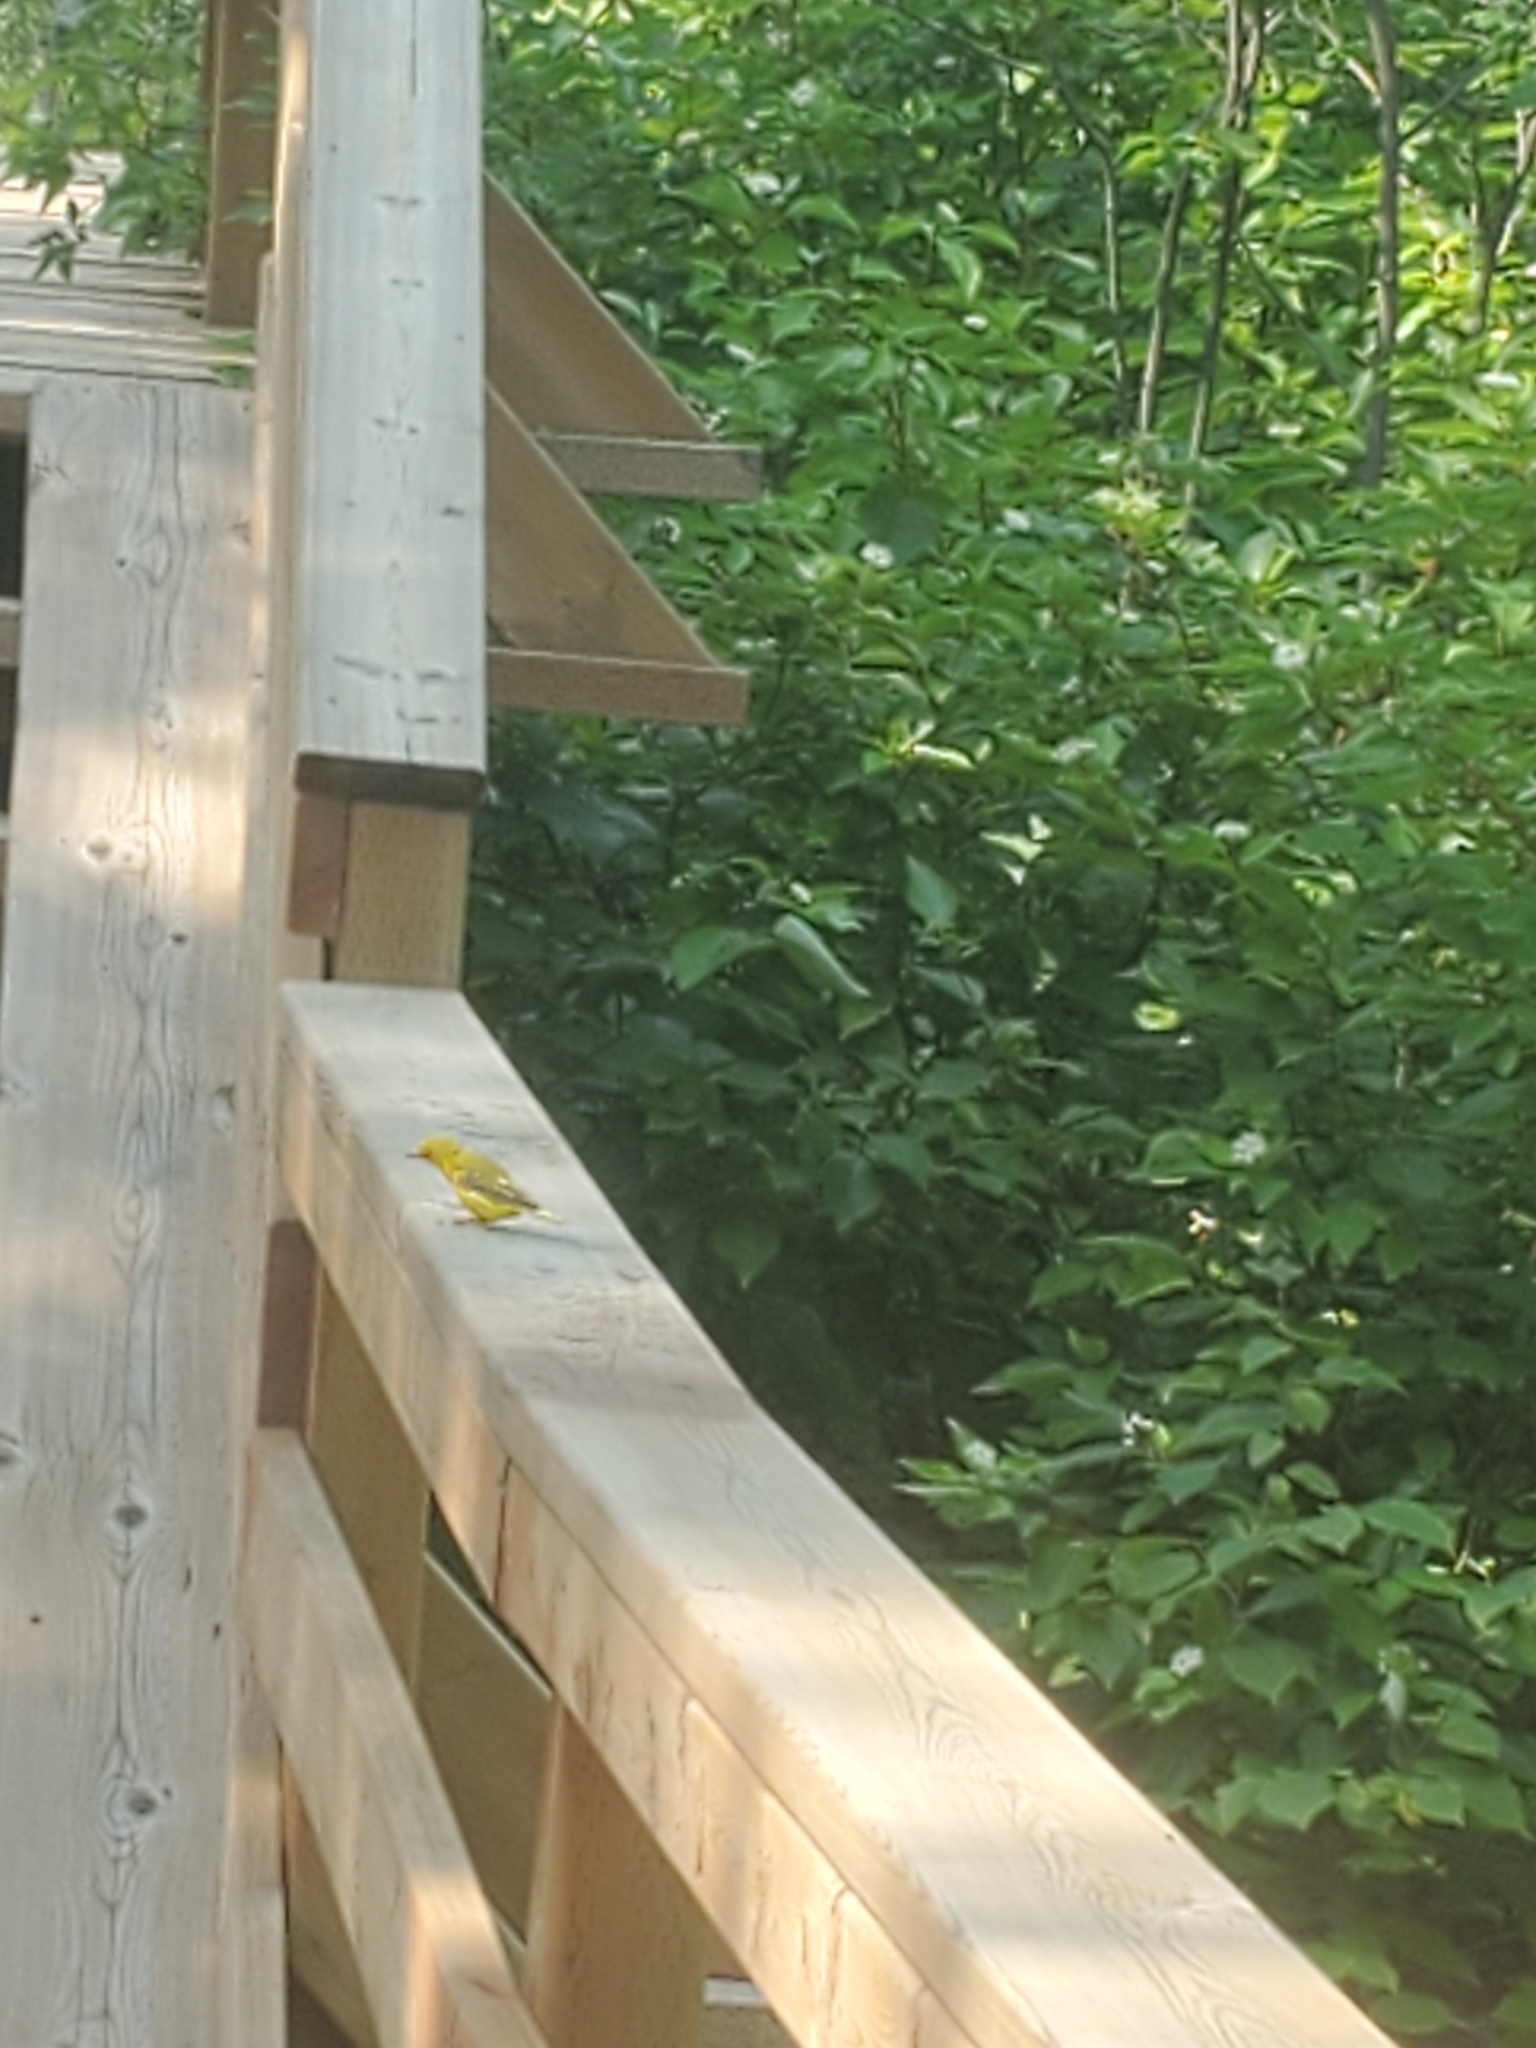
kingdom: Animalia
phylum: Chordata
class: Aves
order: Passeriformes
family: Parulidae
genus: Setophaga
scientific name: Setophaga petechia
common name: Yellow warbler
